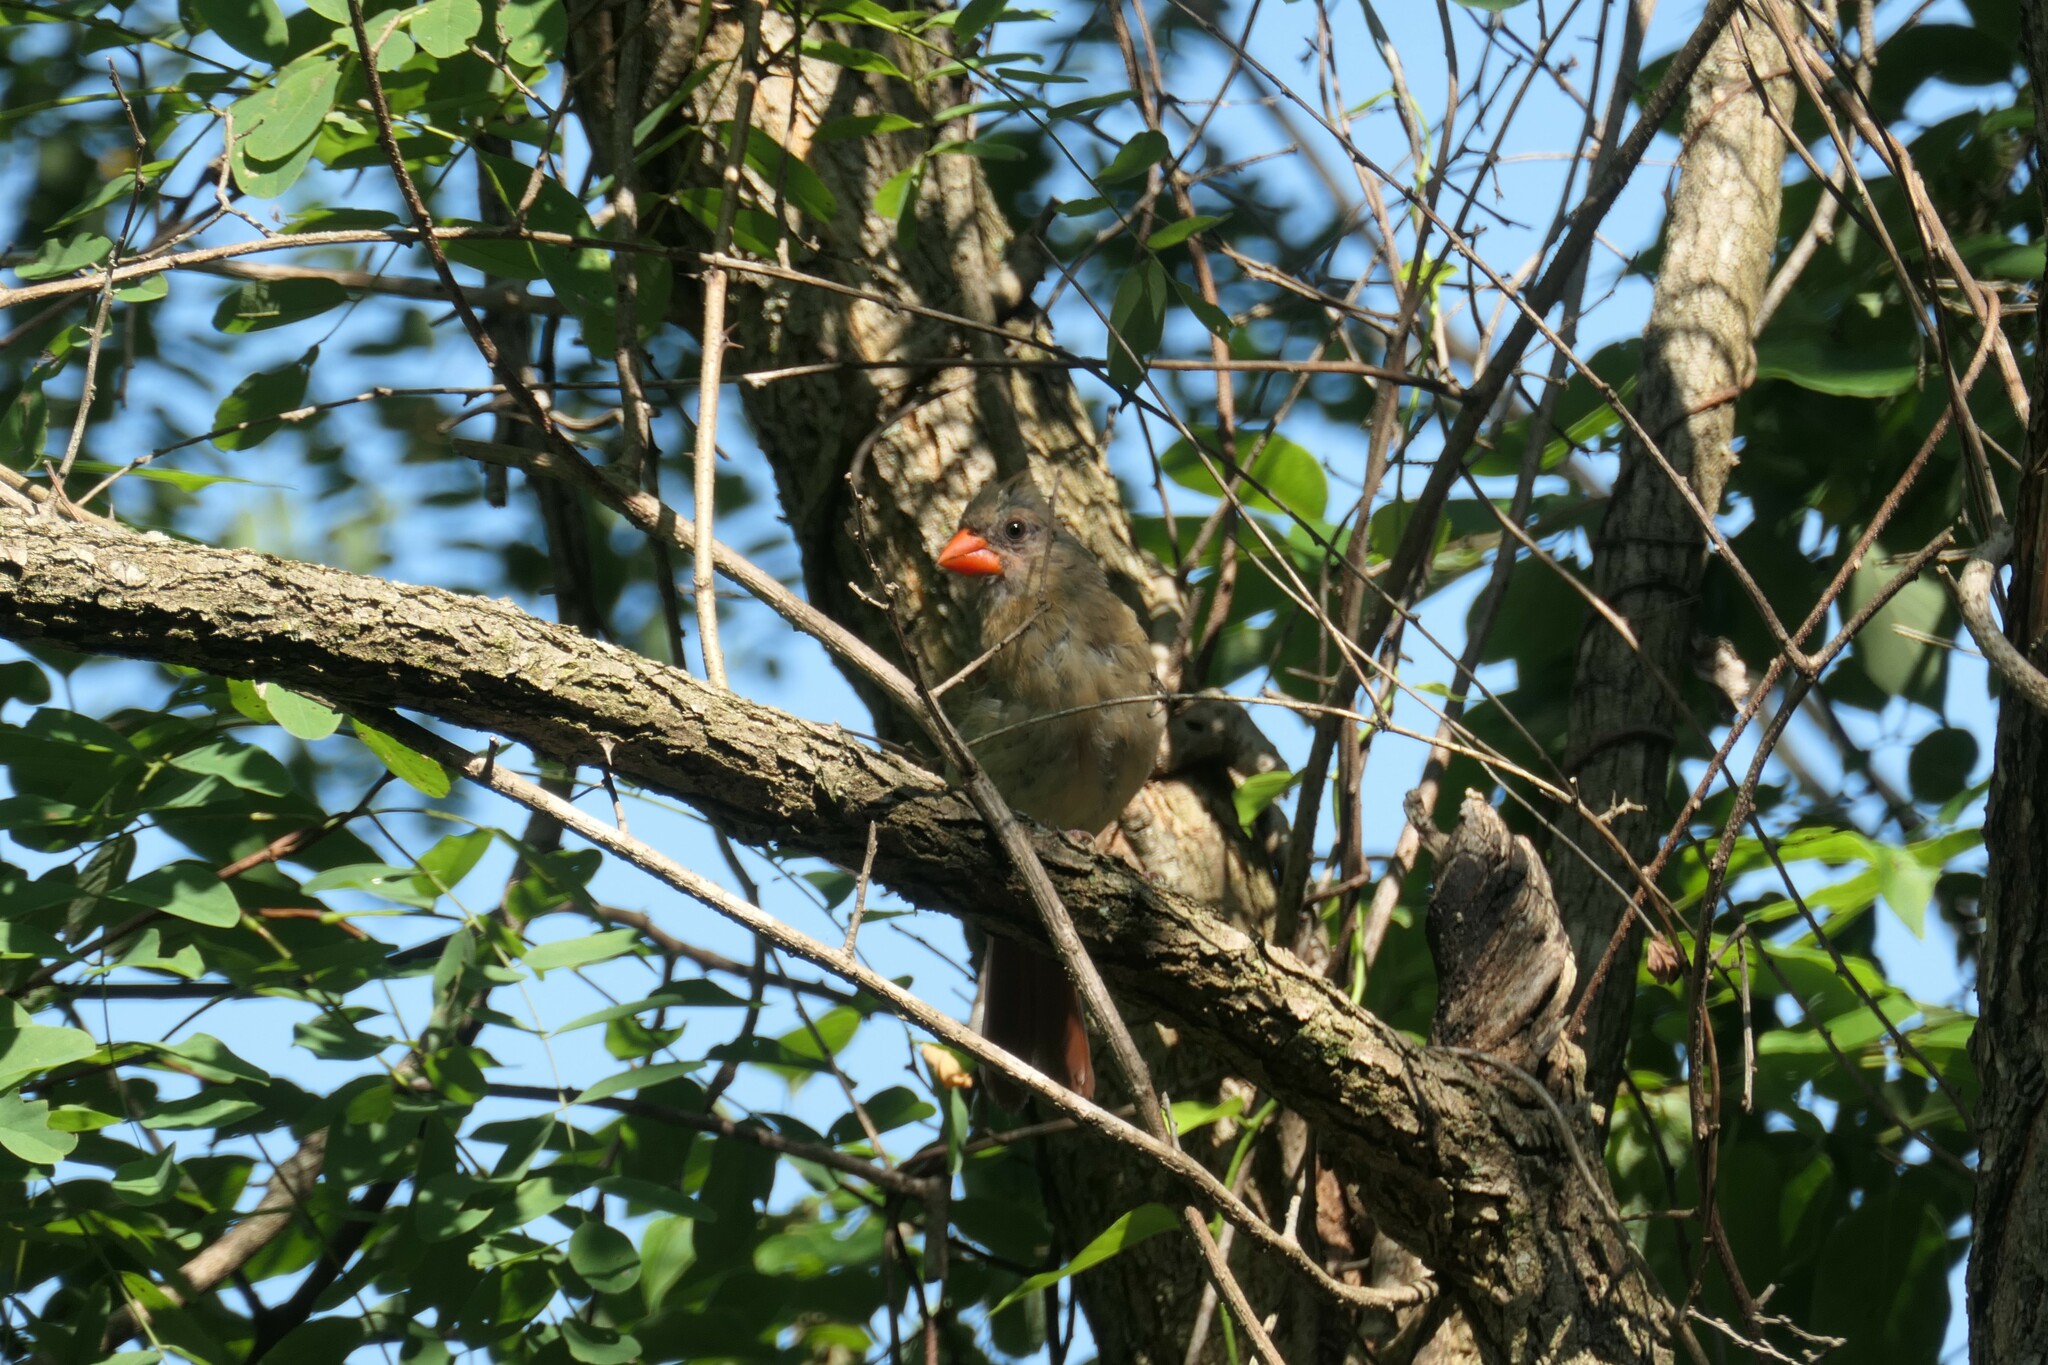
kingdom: Animalia
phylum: Chordata
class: Aves
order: Passeriformes
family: Cardinalidae
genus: Cardinalis
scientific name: Cardinalis cardinalis
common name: Northern cardinal
